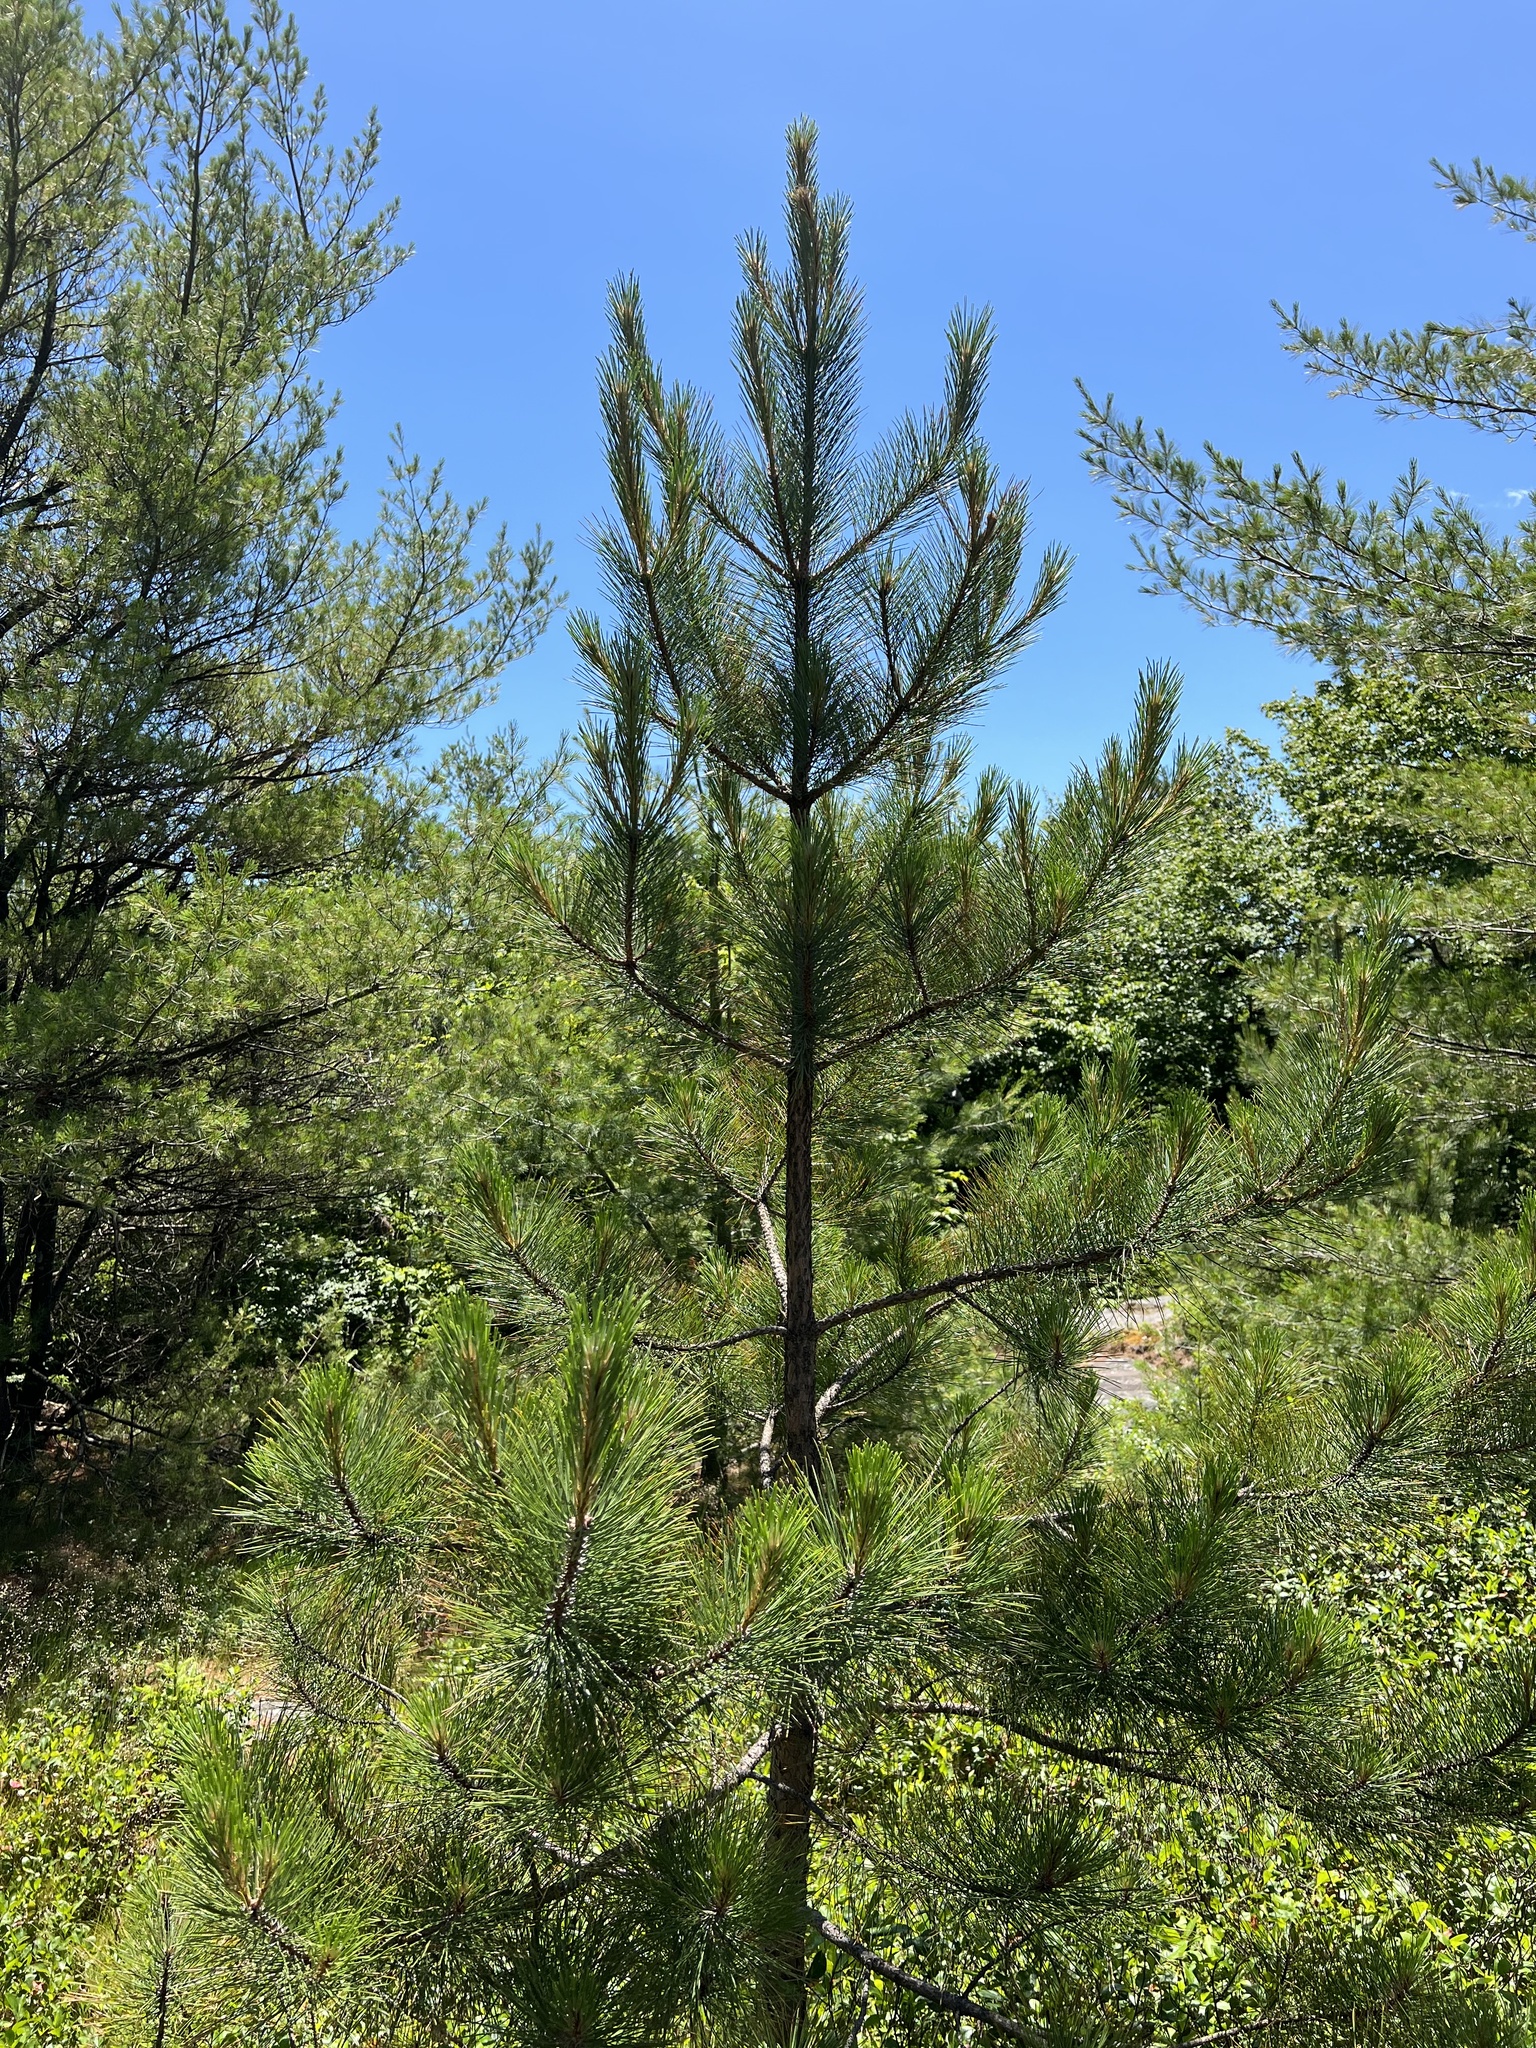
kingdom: Plantae
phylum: Tracheophyta
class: Pinopsida
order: Pinales
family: Pinaceae
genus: Pinus
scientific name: Pinus resinosa
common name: Norway pine
